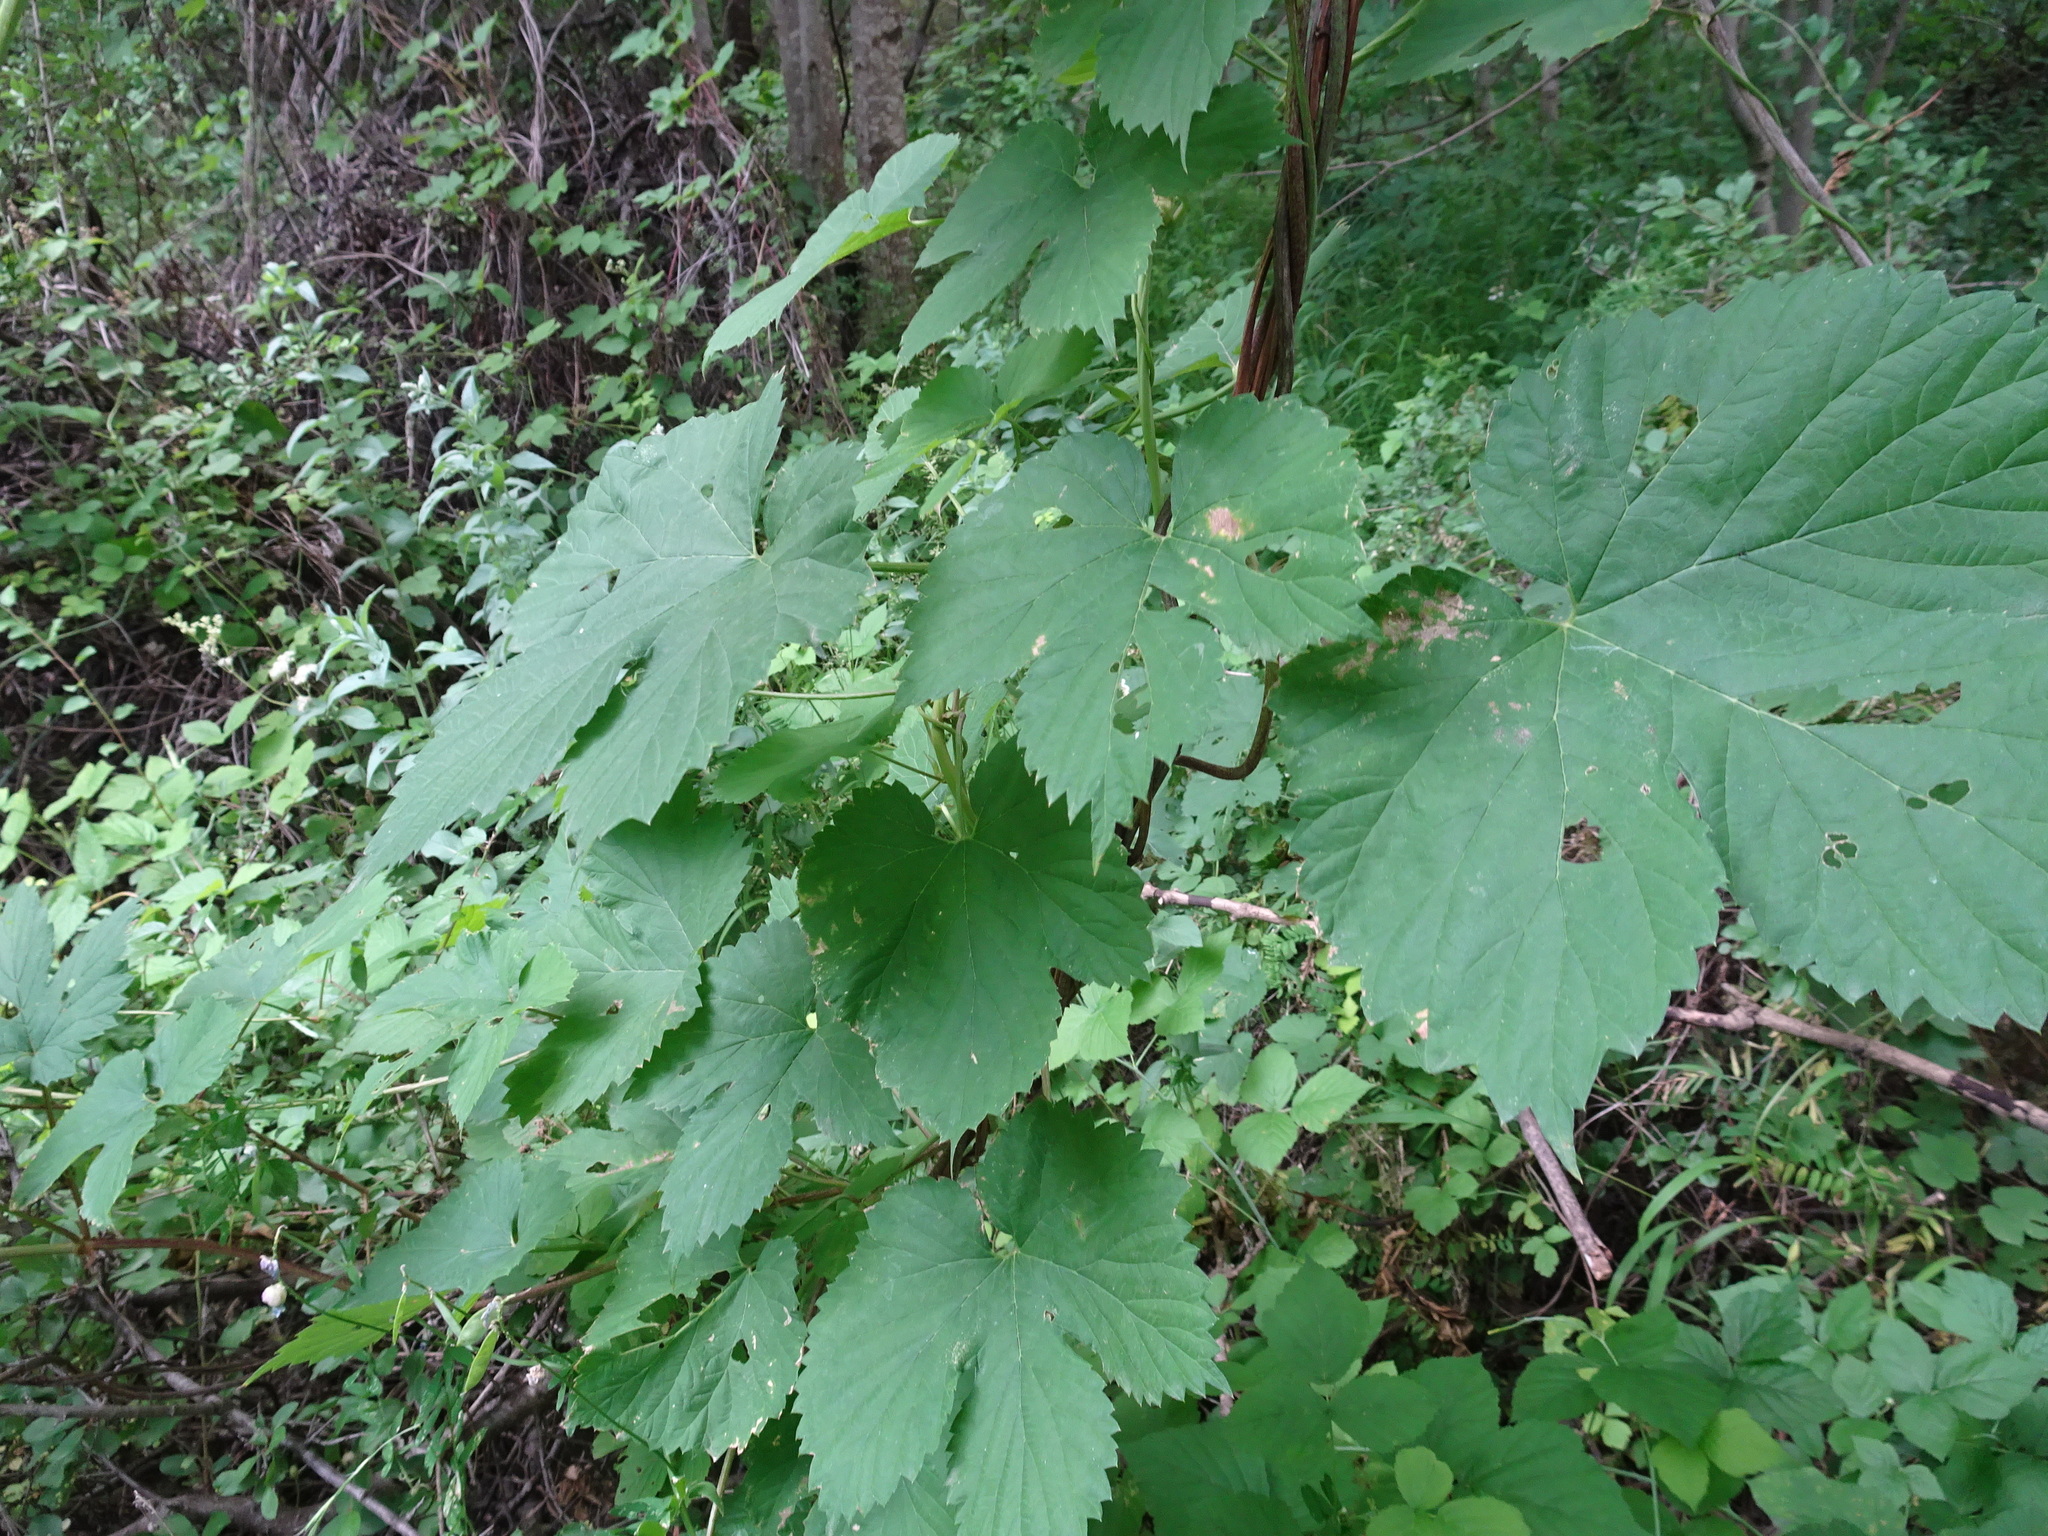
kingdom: Plantae
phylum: Tracheophyta
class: Magnoliopsida
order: Rosales
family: Cannabaceae
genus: Humulus
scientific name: Humulus lupulus
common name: Hop
